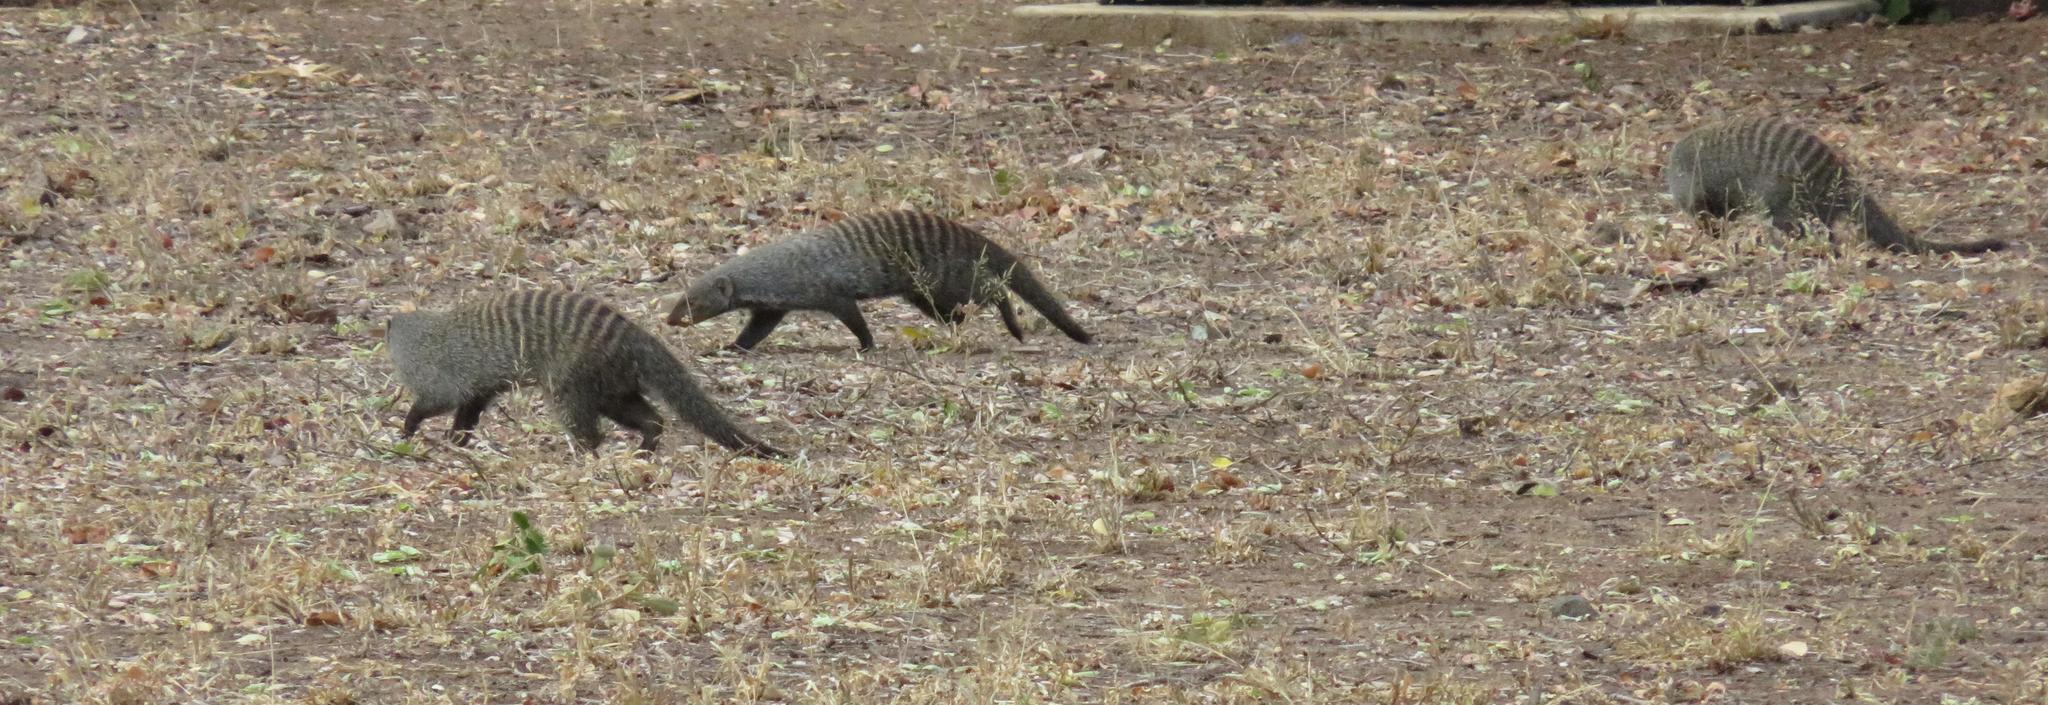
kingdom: Animalia
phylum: Chordata
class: Mammalia
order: Carnivora
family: Herpestidae
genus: Mungos
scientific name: Mungos mungo
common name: Banded mongoose
